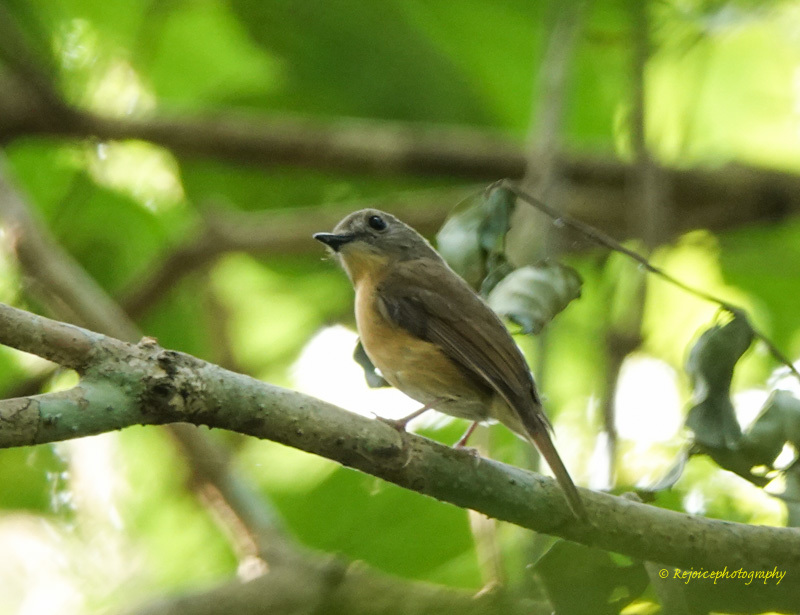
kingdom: Animalia
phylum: Chordata
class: Aves
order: Passeriformes
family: Muscicapidae
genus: Cyornis
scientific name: Cyornis poliogenys
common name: Pale-chinned blue flycatcher
